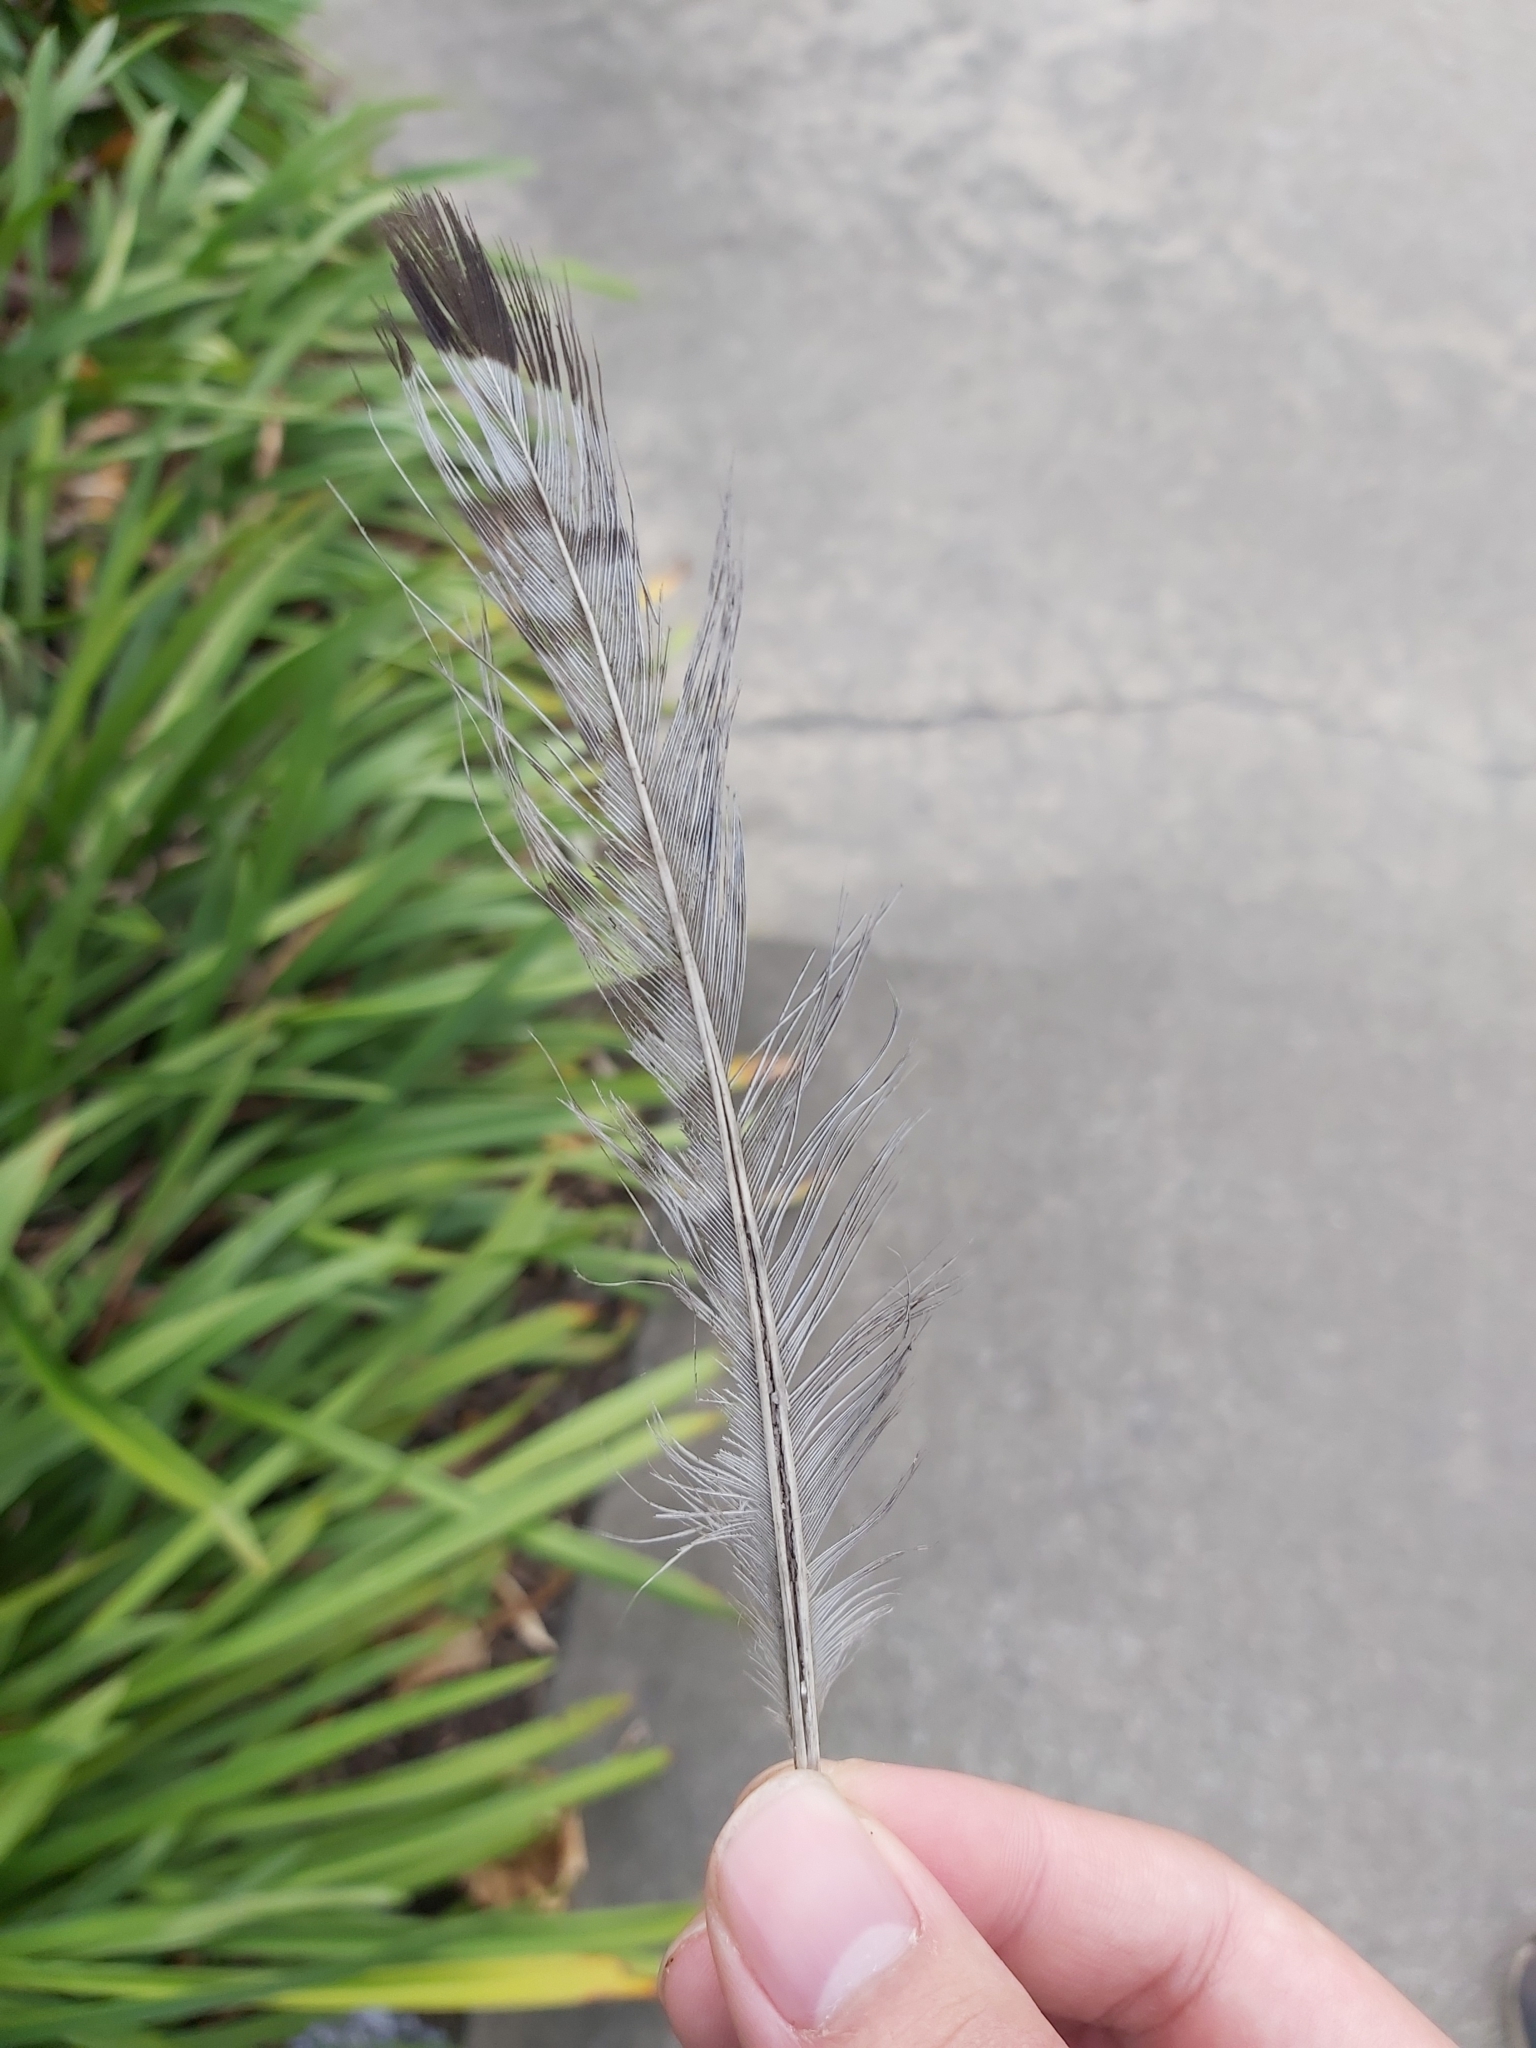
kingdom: Animalia
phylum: Chordata
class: Aves
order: Charadriiformes
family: Burhinidae
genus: Burhinus
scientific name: Burhinus grallarius
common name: Bush stone-curlew
